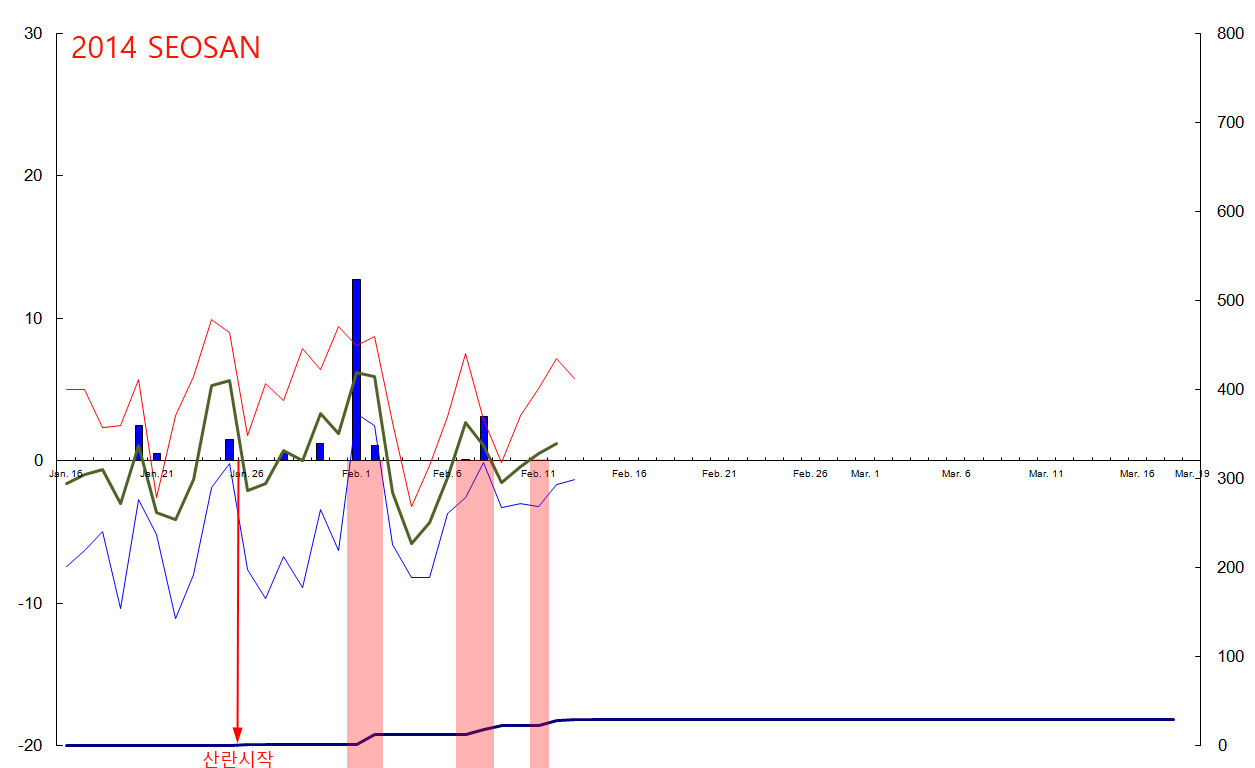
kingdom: Animalia
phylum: Chordata
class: Amphibia
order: Anura
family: Ranidae
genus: Rana
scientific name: Rana coreana
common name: Korean brown frog
